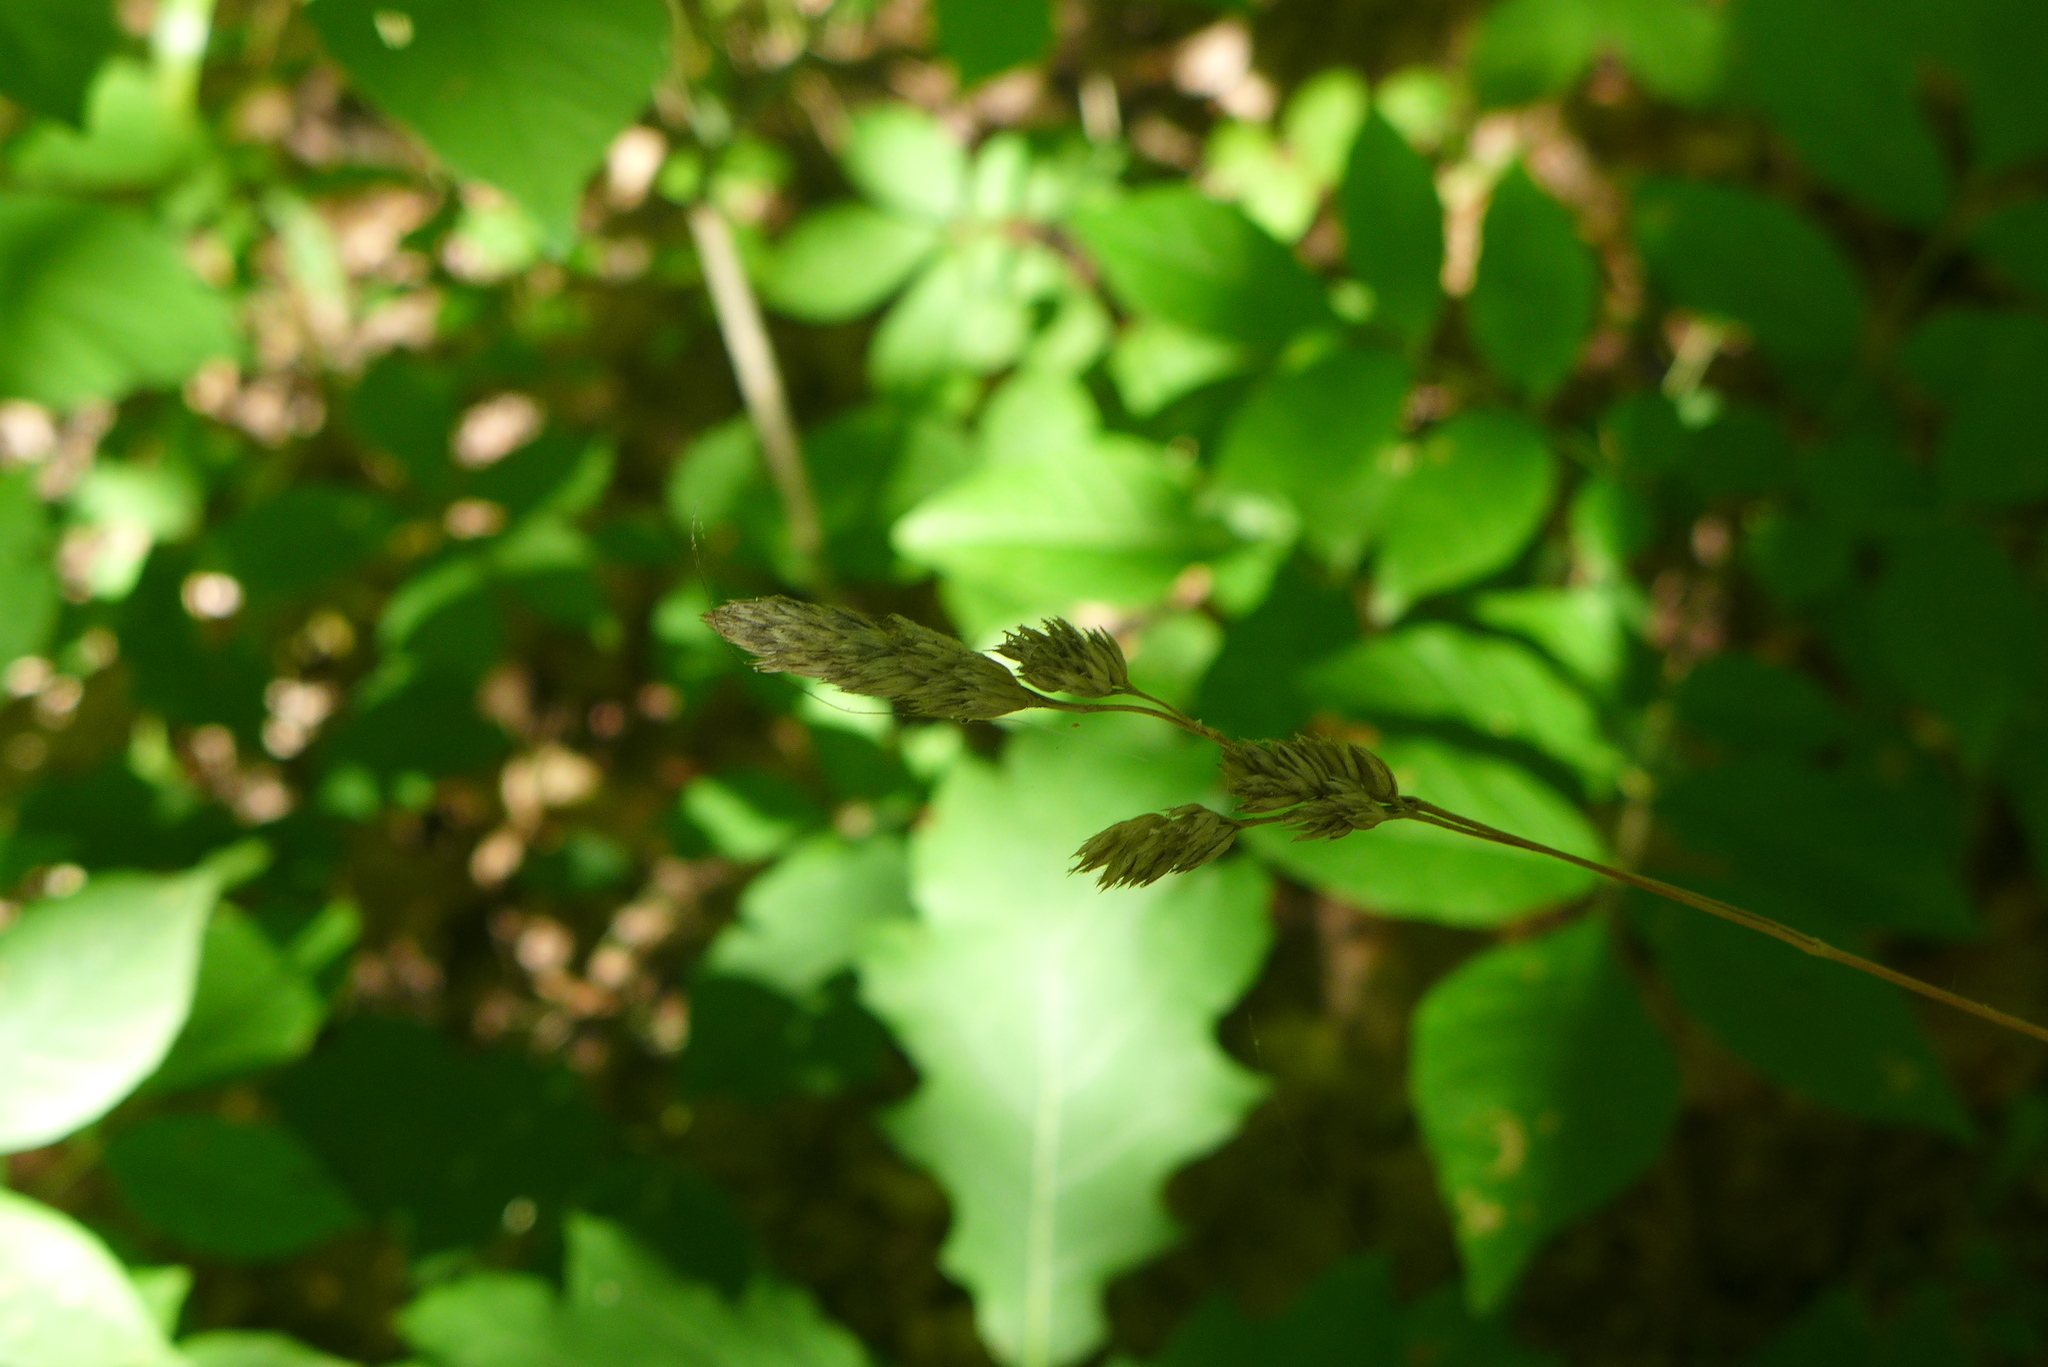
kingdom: Plantae
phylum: Tracheophyta
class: Liliopsida
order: Poales
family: Poaceae
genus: Dactylis
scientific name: Dactylis glomerata
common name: Orchardgrass
